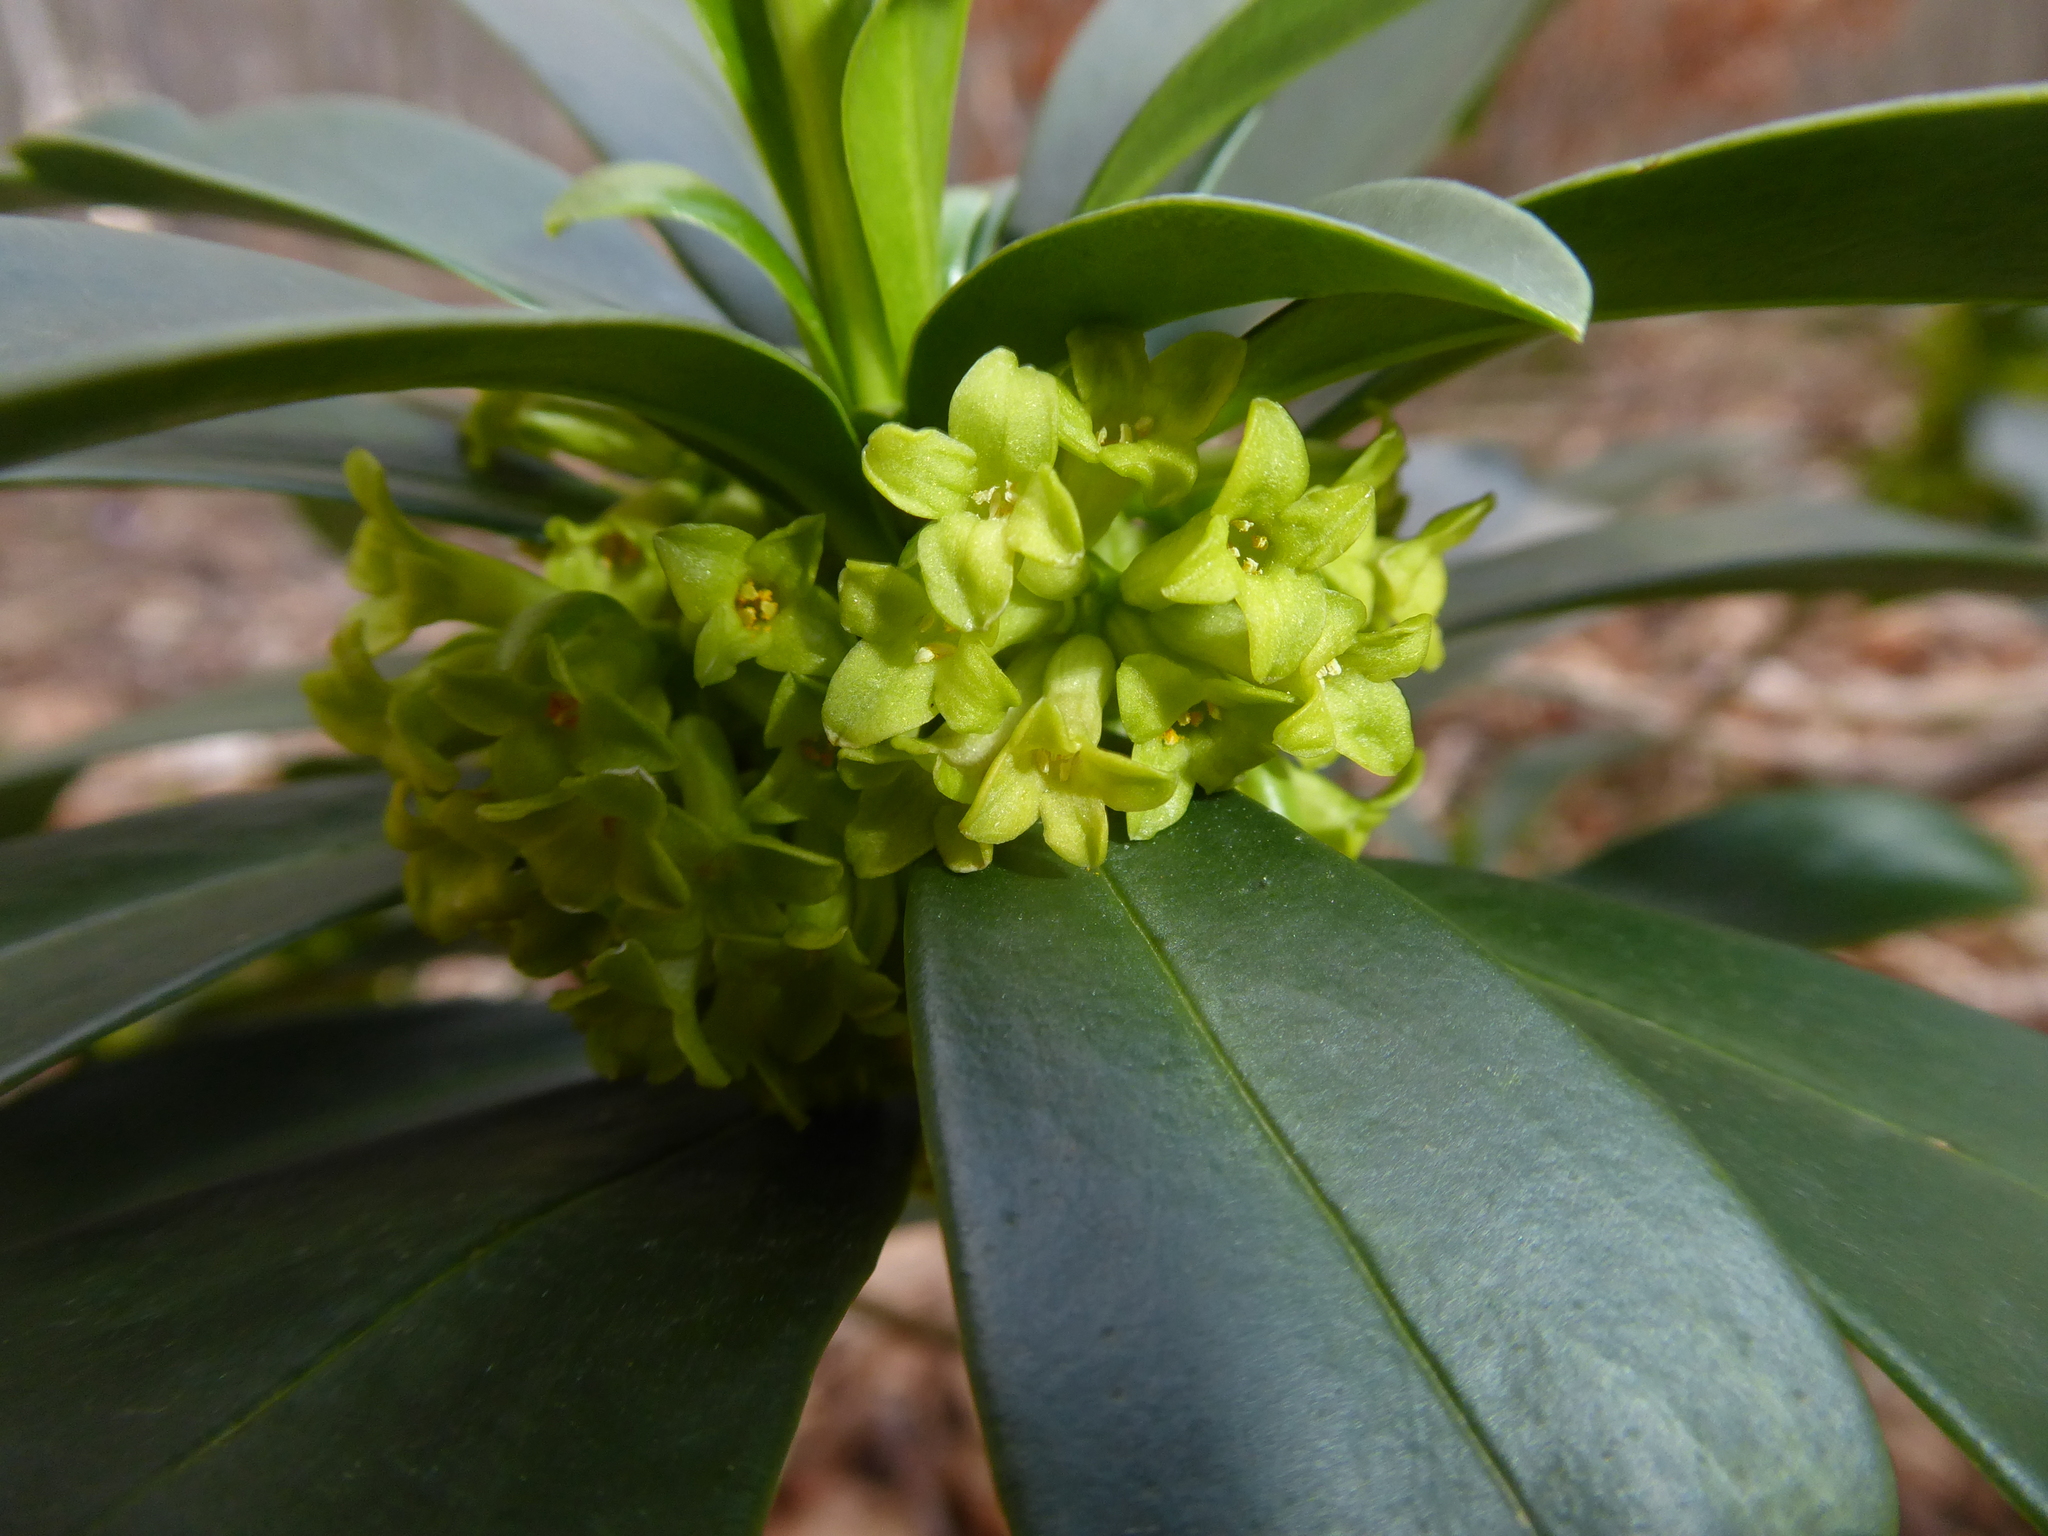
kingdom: Plantae
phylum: Tracheophyta
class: Magnoliopsida
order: Malvales
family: Thymelaeaceae
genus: Daphne
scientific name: Daphne laureola
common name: Spurge-laurel
